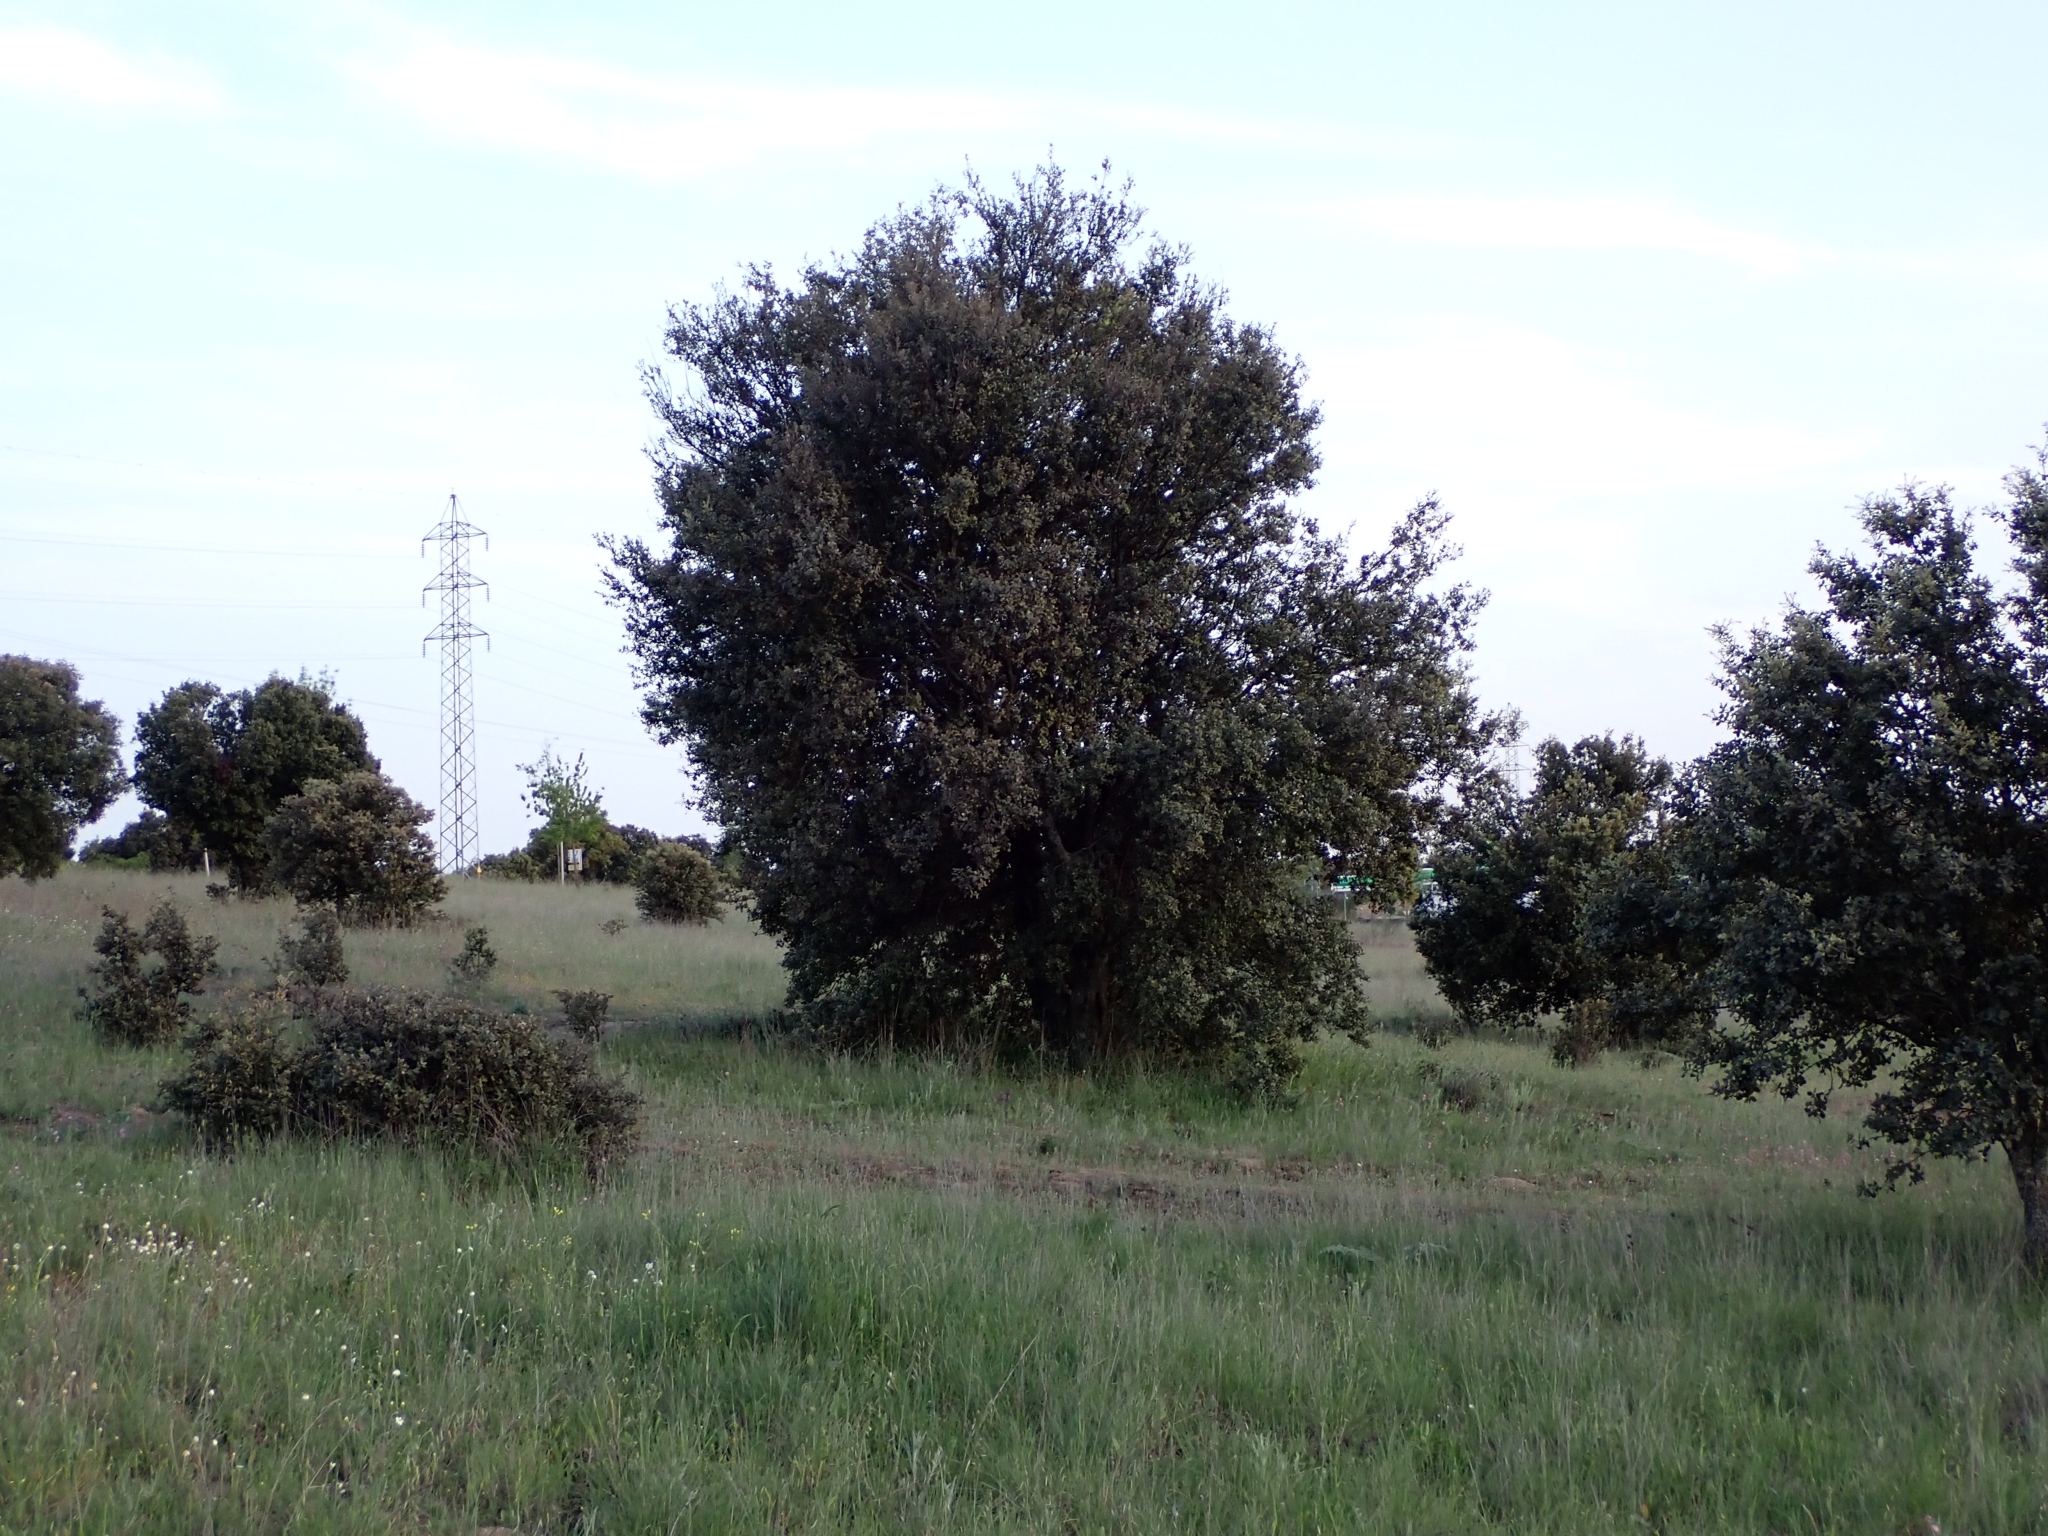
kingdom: Plantae
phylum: Tracheophyta
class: Magnoliopsida
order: Fagales
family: Fagaceae
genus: Quercus
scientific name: Quercus rotundifolia
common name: Holm oak
